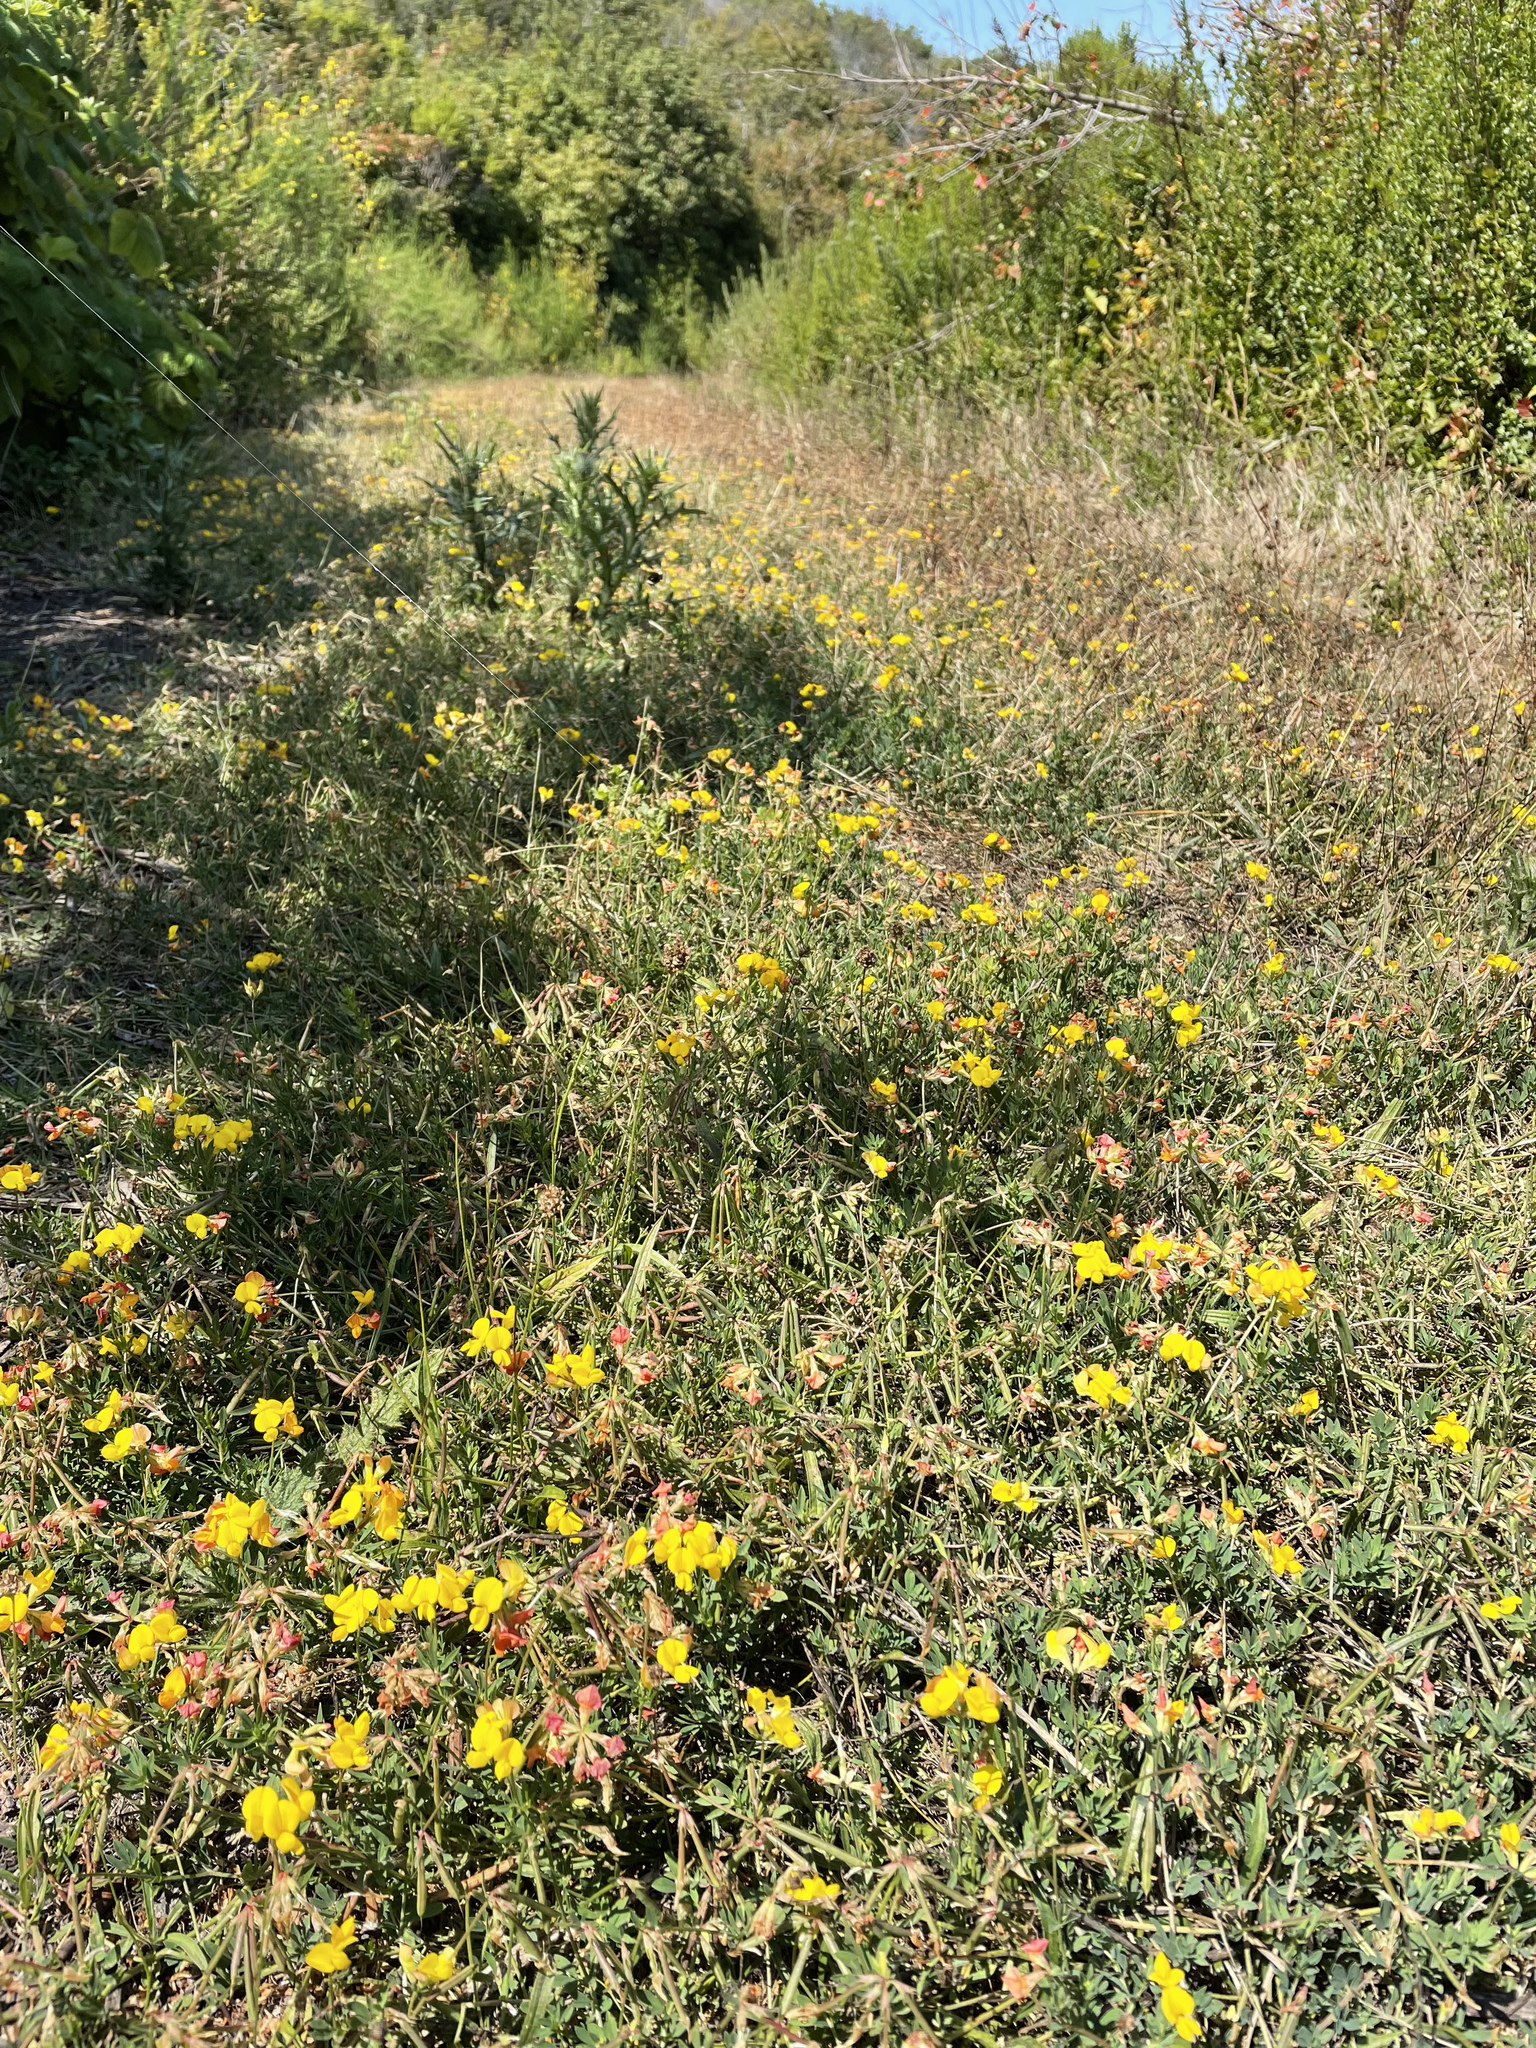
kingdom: Plantae
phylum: Tracheophyta
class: Magnoliopsida
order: Fabales
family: Fabaceae
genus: Lotus
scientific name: Lotus corniculatus
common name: Common bird's-foot-trefoil
